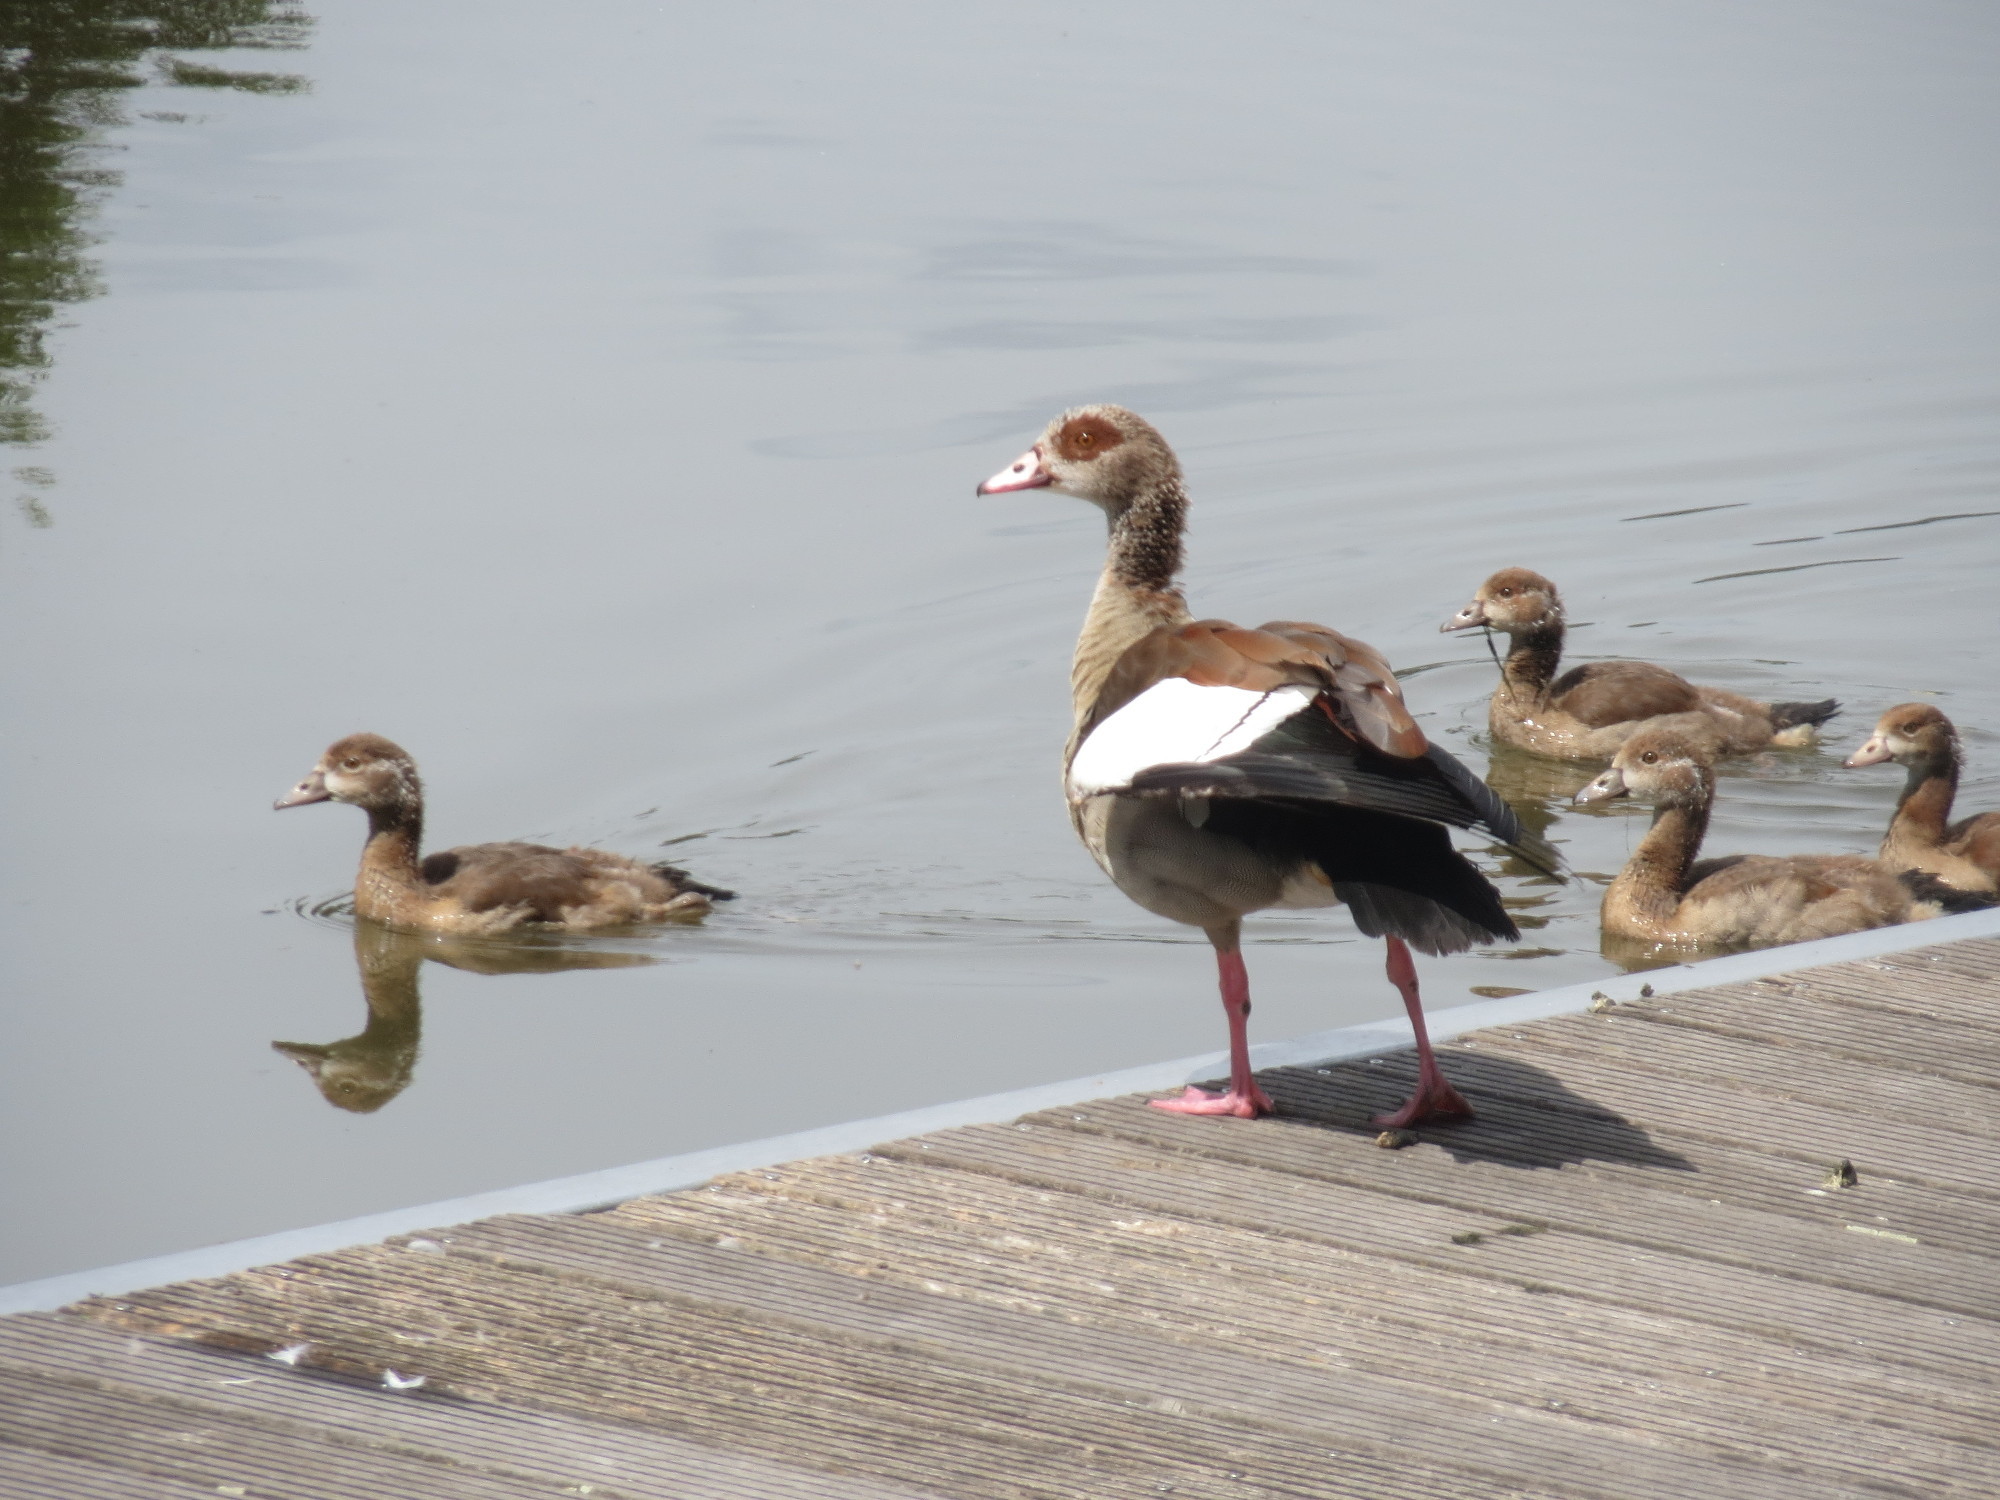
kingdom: Animalia
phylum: Chordata
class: Aves
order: Anseriformes
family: Anatidae
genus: Alopochen
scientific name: Alopochen aegyptiaca
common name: Egyptian goose
